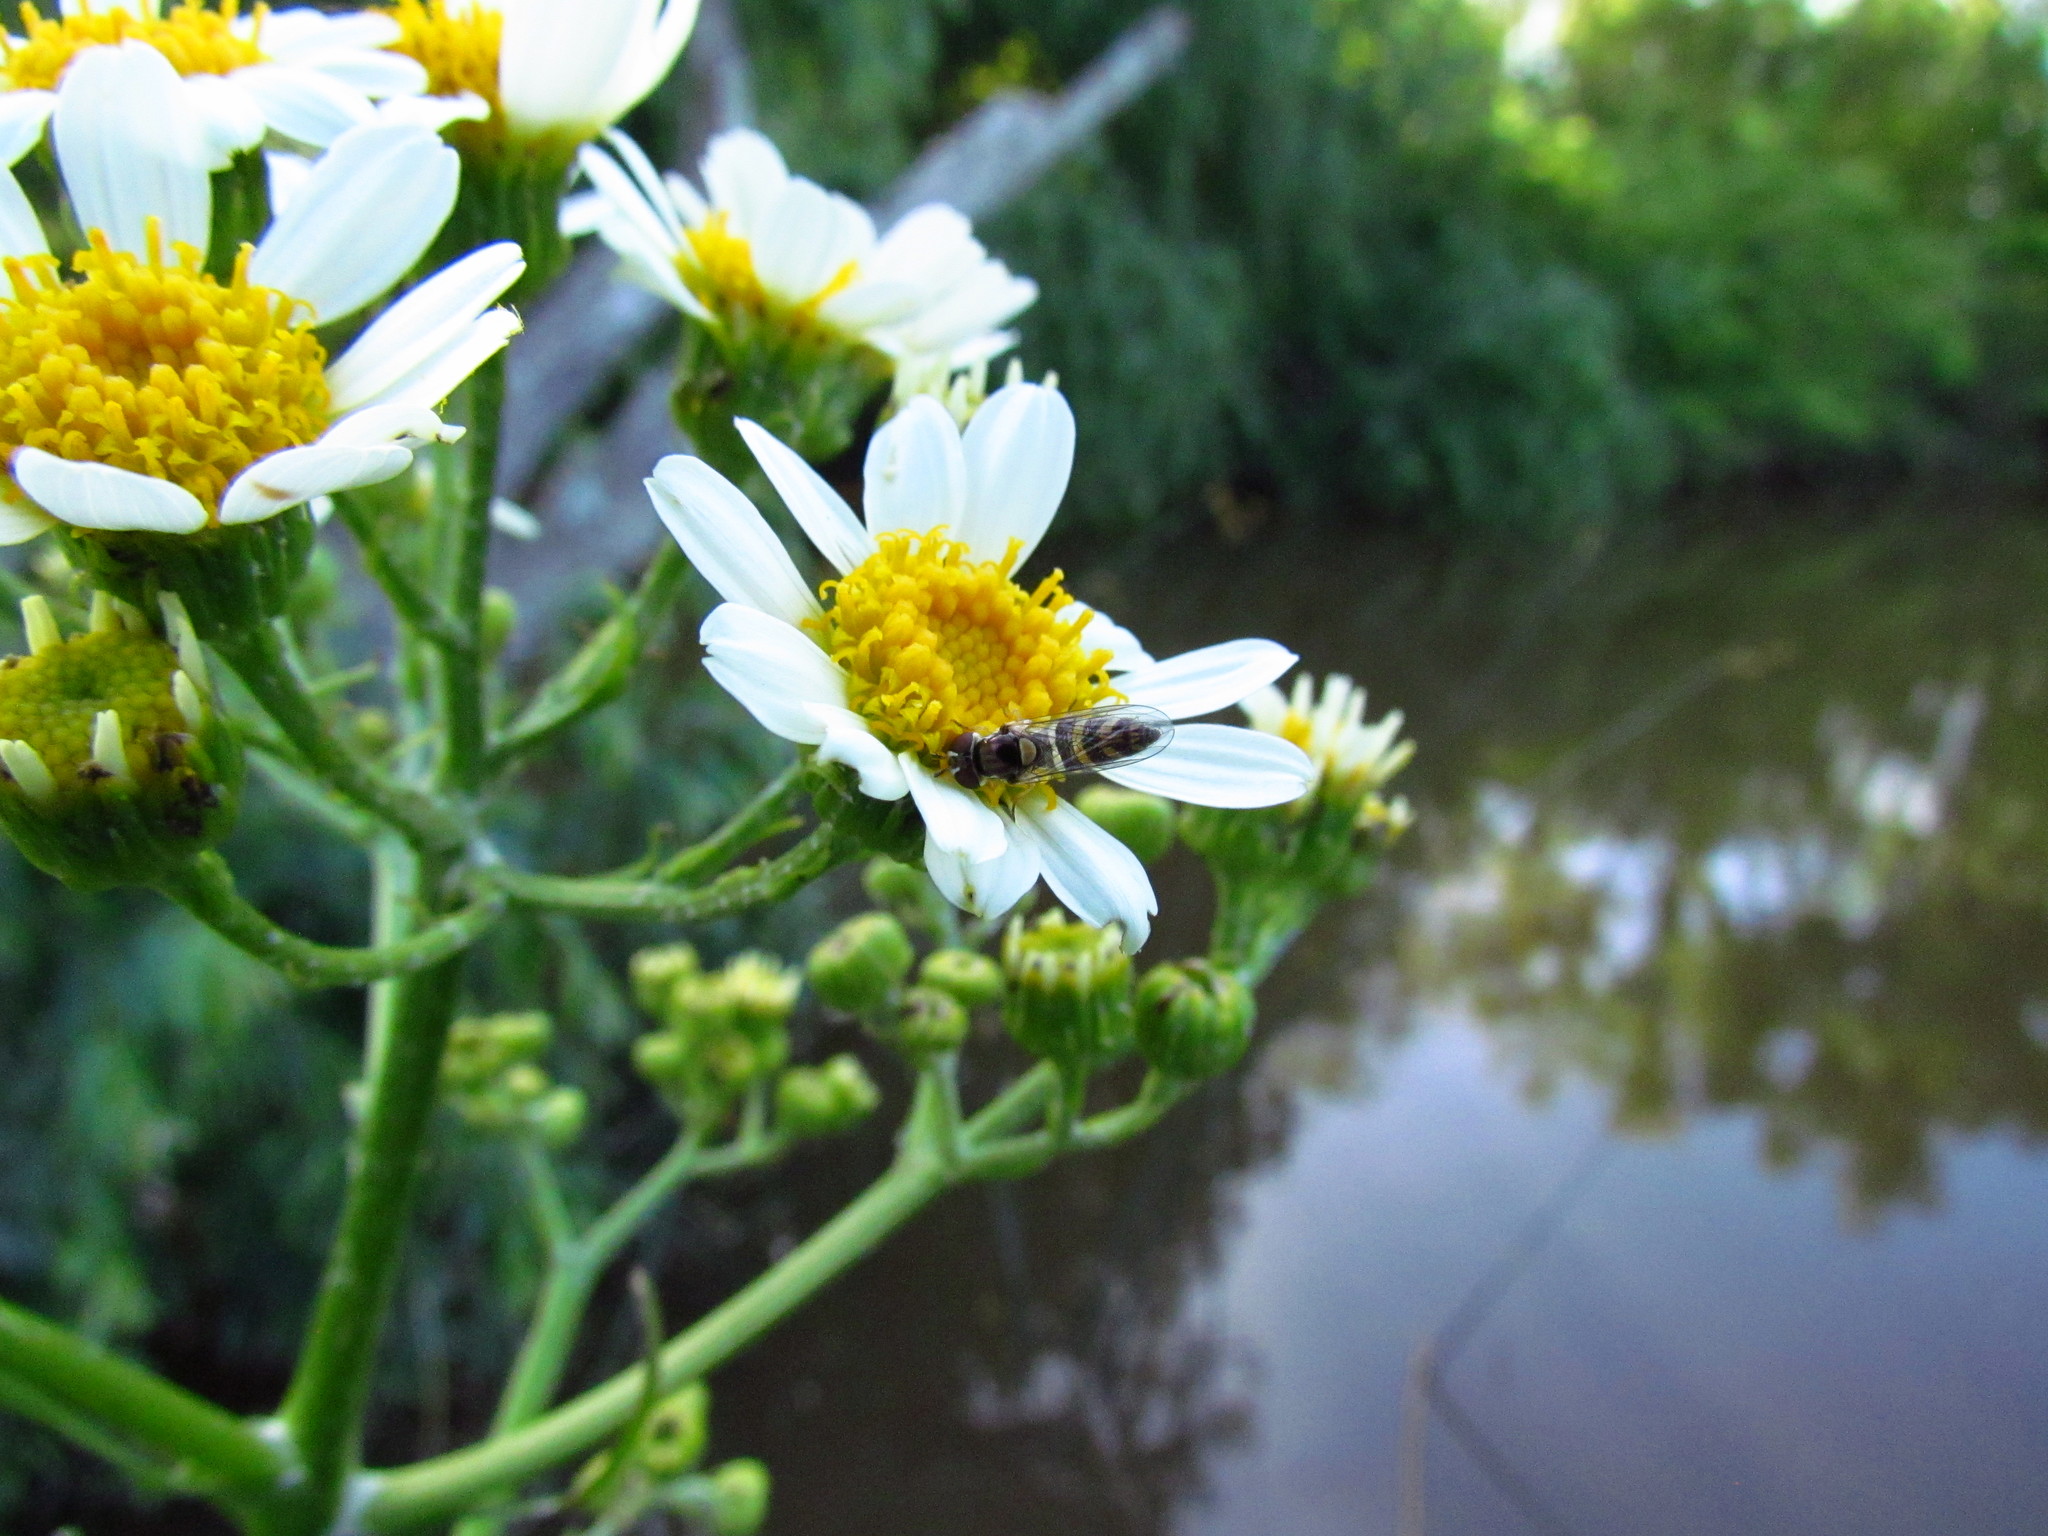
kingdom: Animalia
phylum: Arthropoda
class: Insecta
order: Diptera
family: Syrphidae
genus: Allograpta
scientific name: Allograpta
